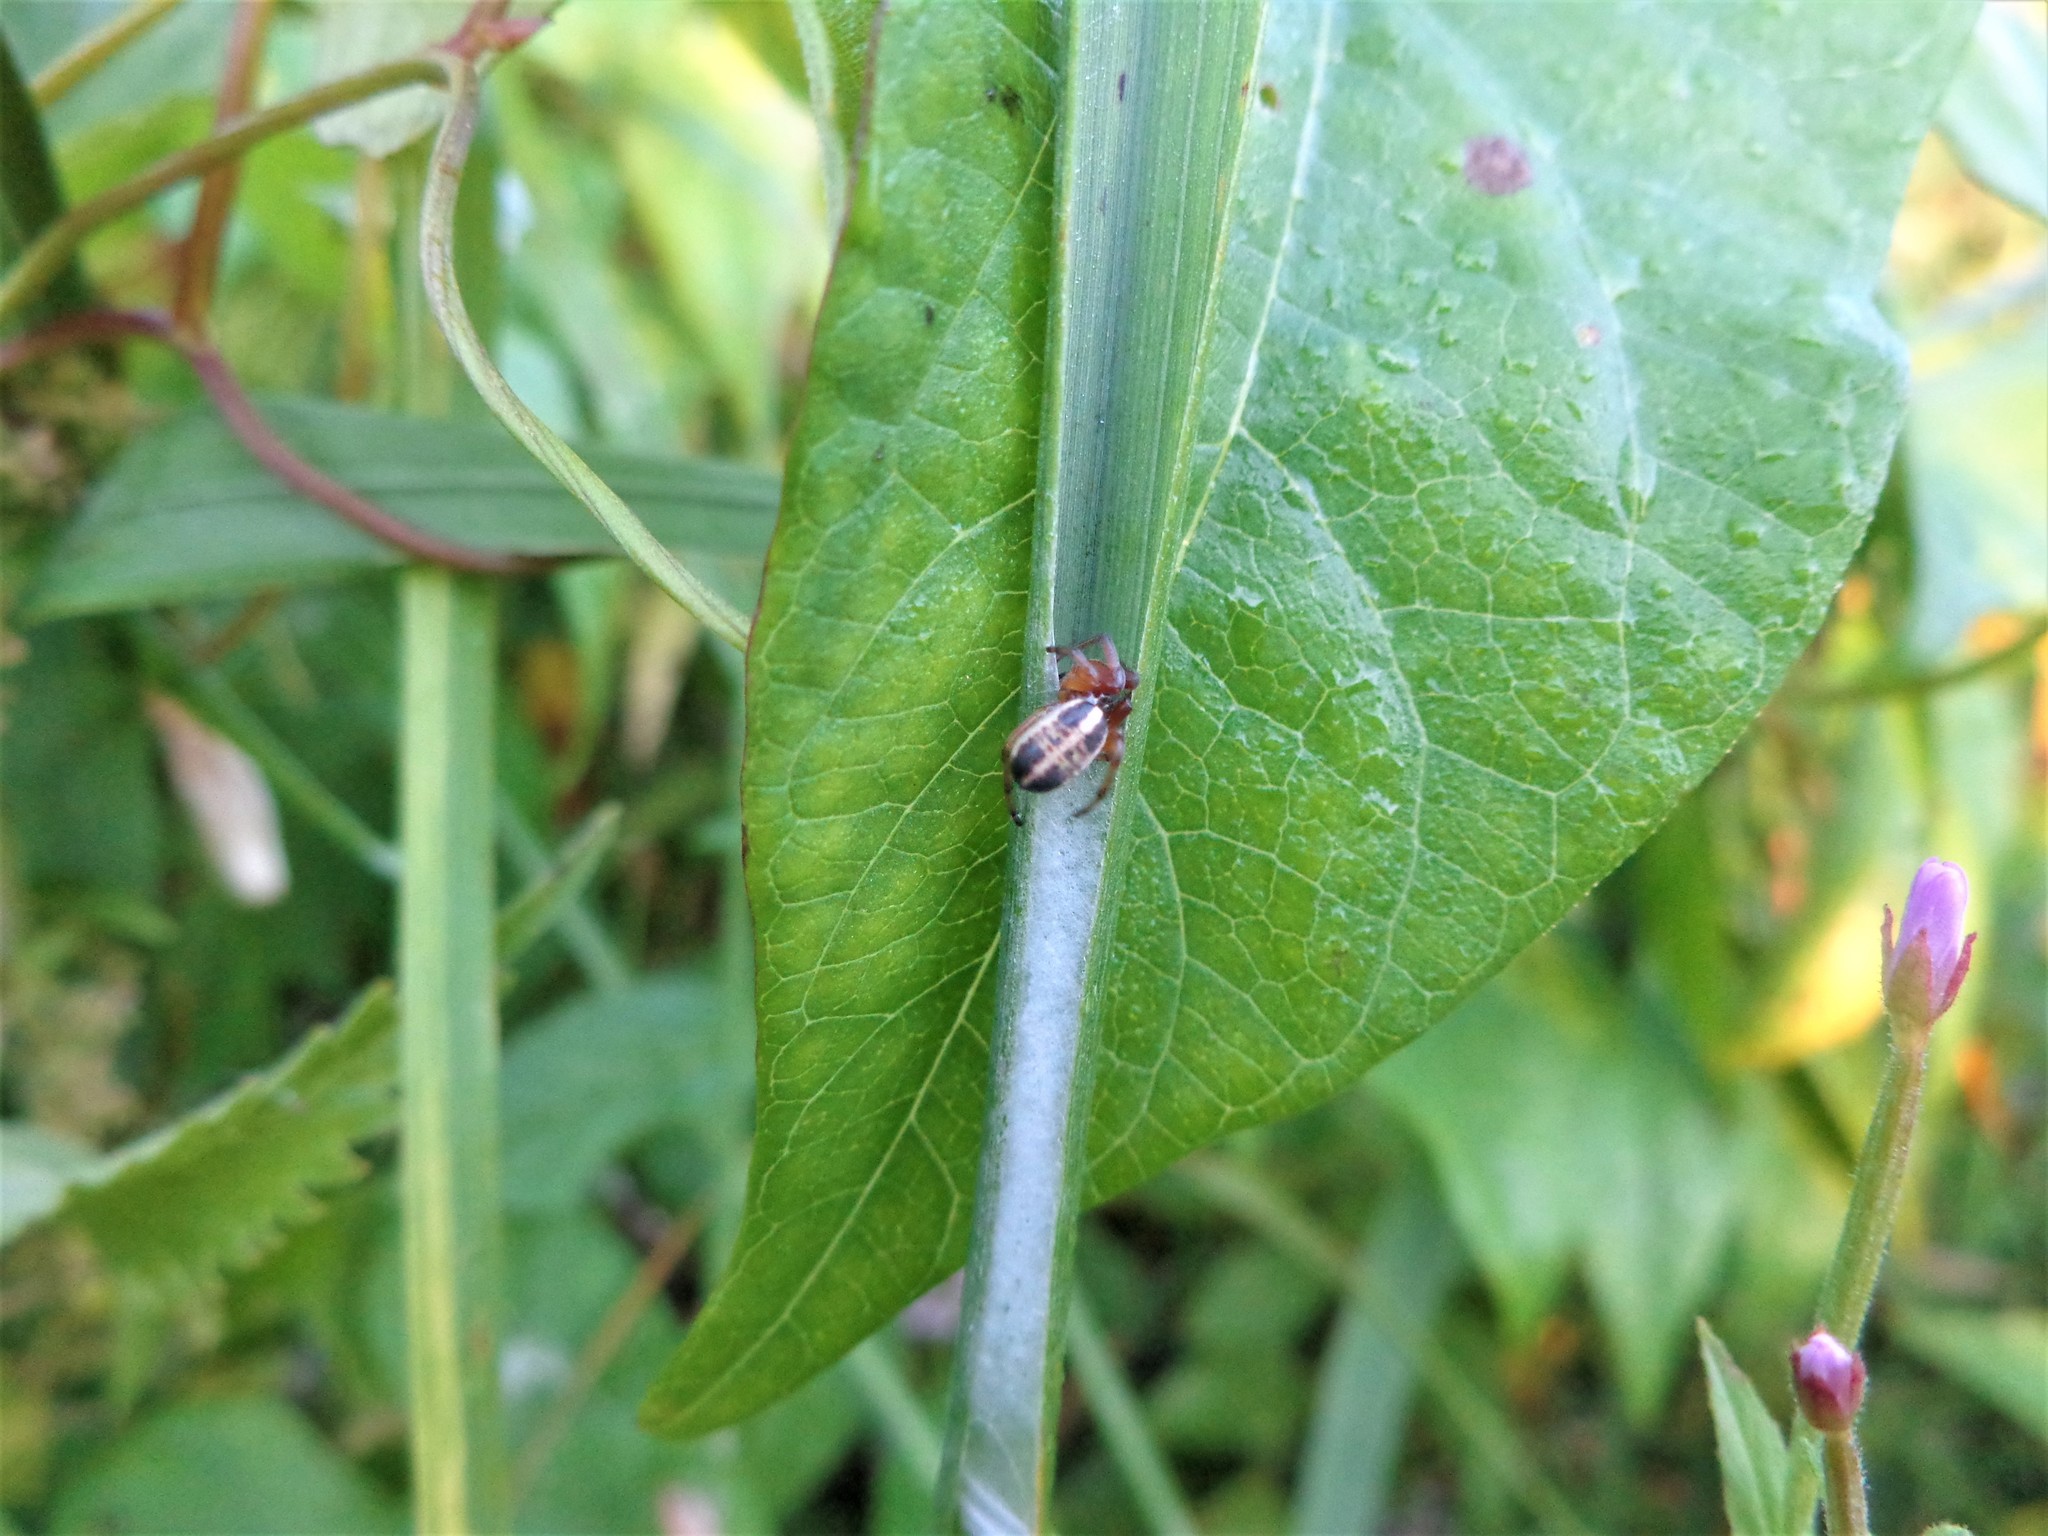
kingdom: Animalia
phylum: Arthropoda
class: Arachnida
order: Araneae
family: Araneidae
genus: Singa
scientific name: Singa hamata
